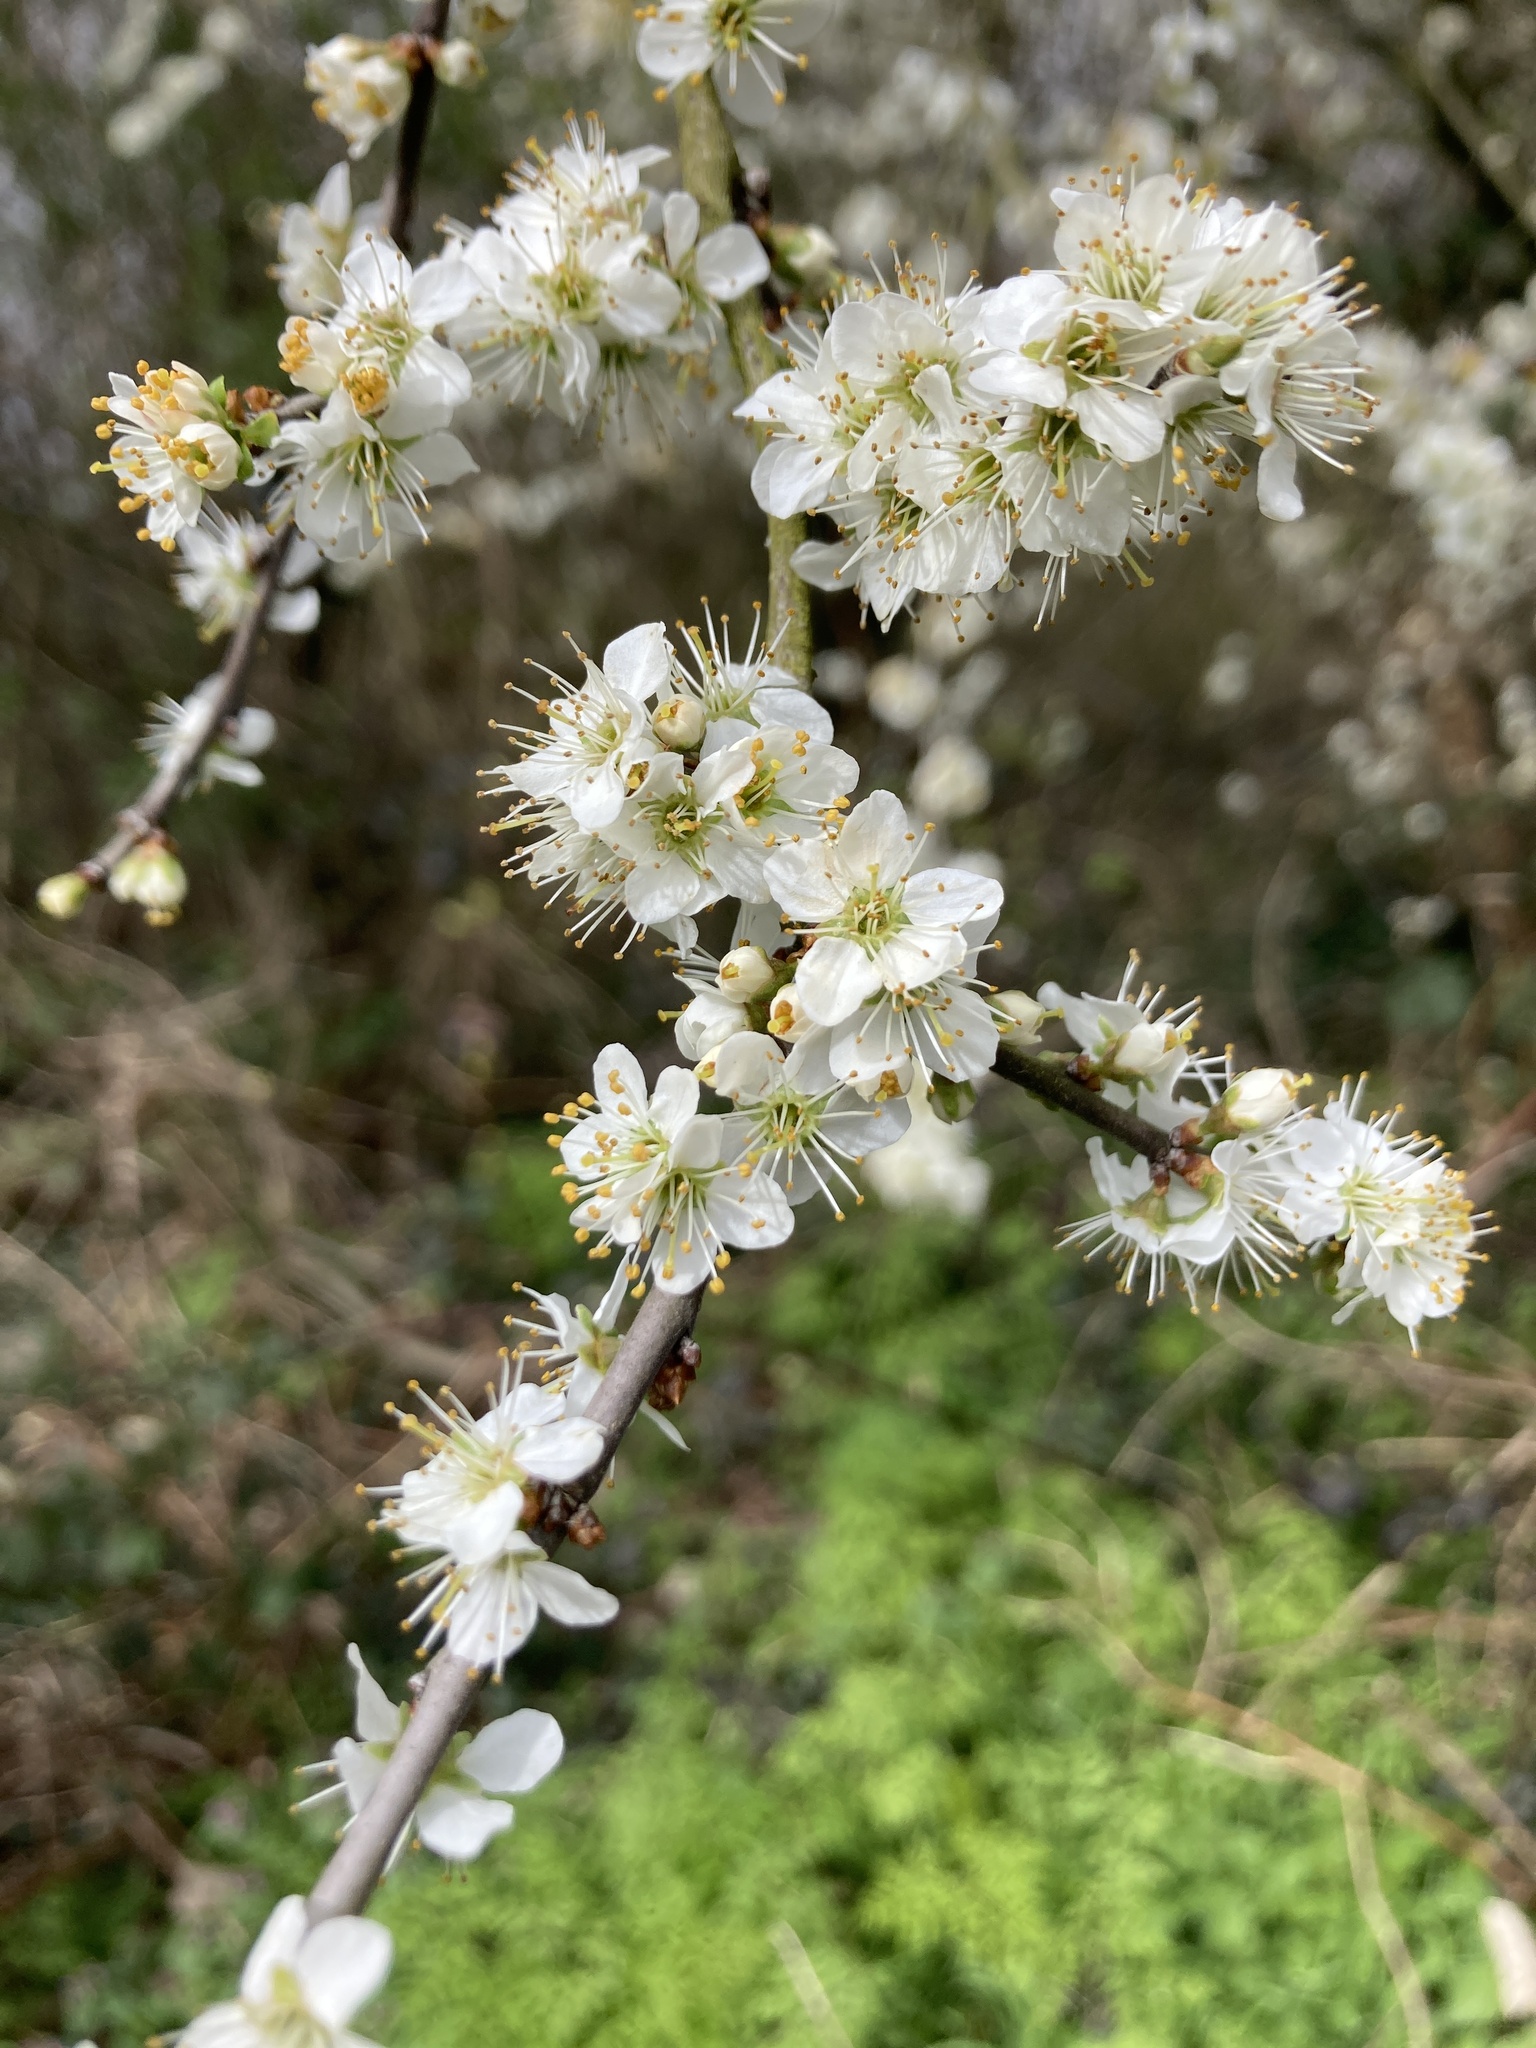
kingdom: Plantae
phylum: Tracheophyta
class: Magnoliopsida
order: Rosales
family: Rosaceae
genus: Prunus
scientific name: Prunus spinosa
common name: Blackthorn
